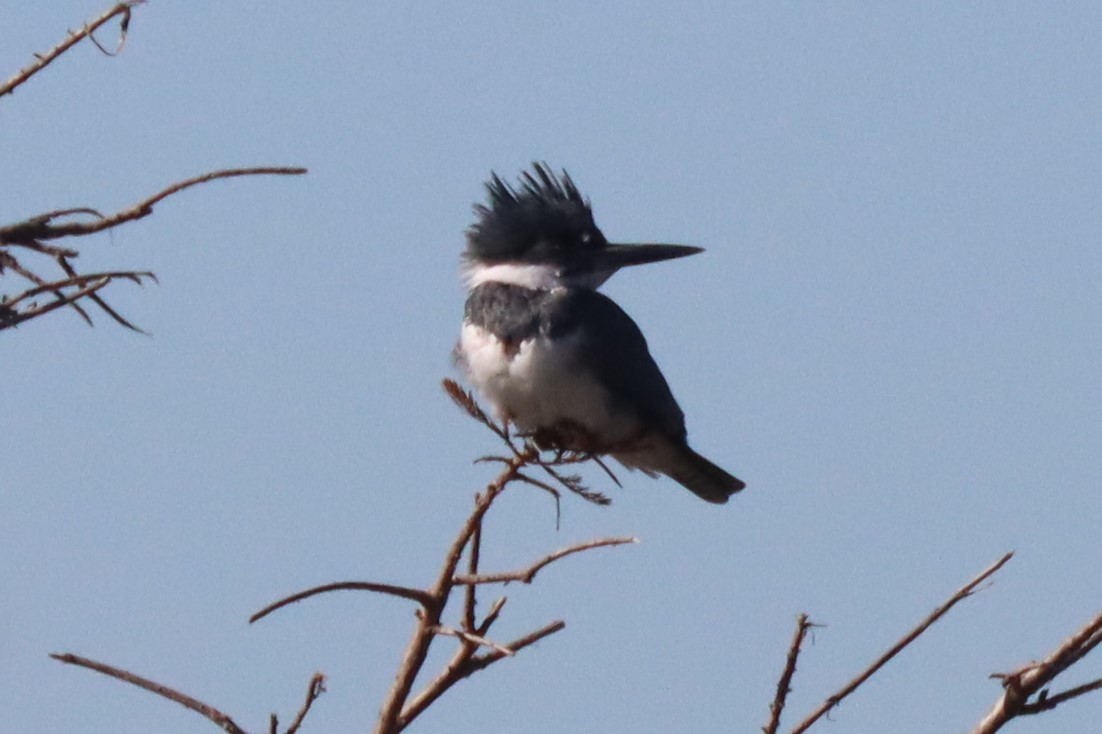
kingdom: Animalia
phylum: Chordata
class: Aves
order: Coraciiformes
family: Alcedinidae
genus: Megaceryle
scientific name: Megaceryle alcyon
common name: Belted kingfisher
